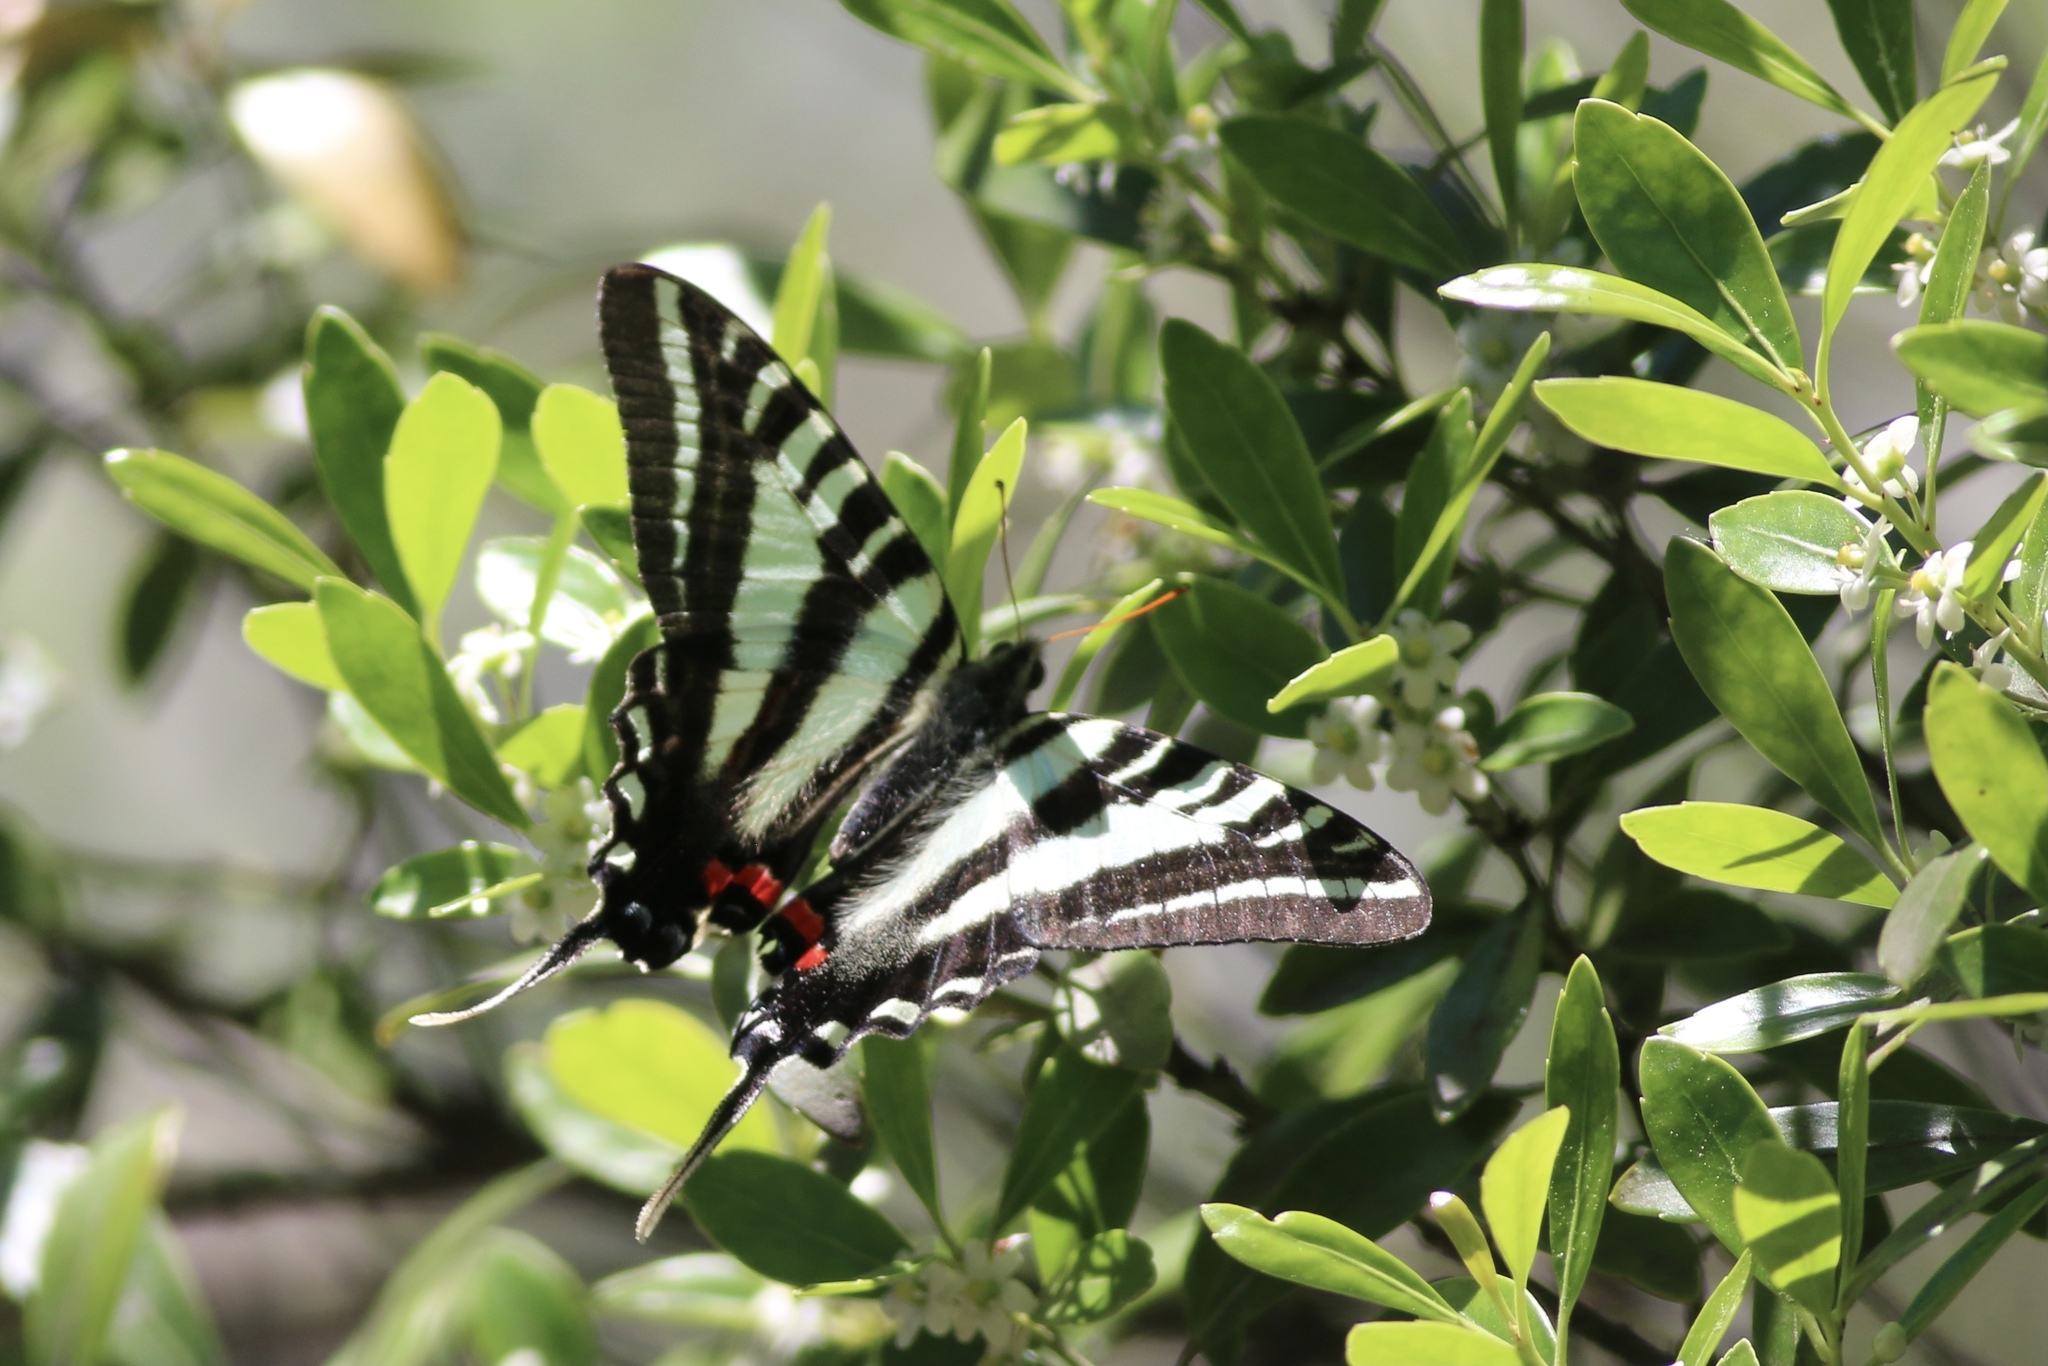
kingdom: Animalia
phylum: Arthropoda
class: Insecta
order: Lepidoptera
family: Papilionidae
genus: Protographium
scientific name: Protographium marcellus
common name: Zebra swallowtail
